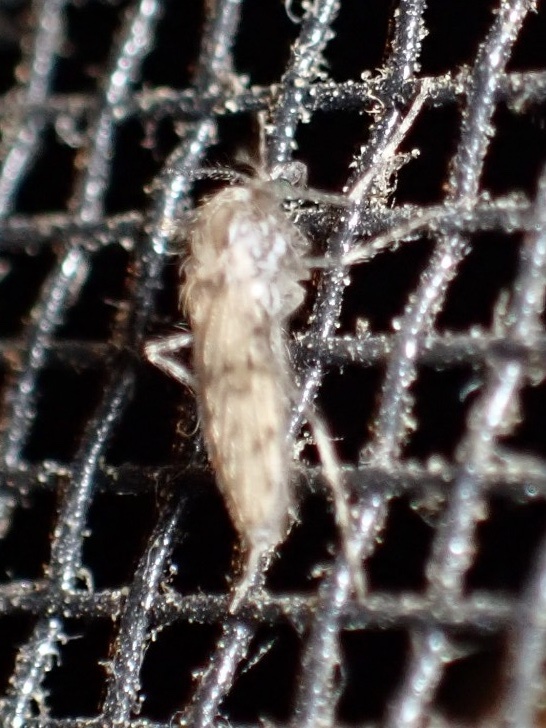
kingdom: Animalia
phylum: Arthropoda
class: Insecta
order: Diptera
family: Chaoboridae
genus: Chaoborus
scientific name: Chaoborus punctipennis
